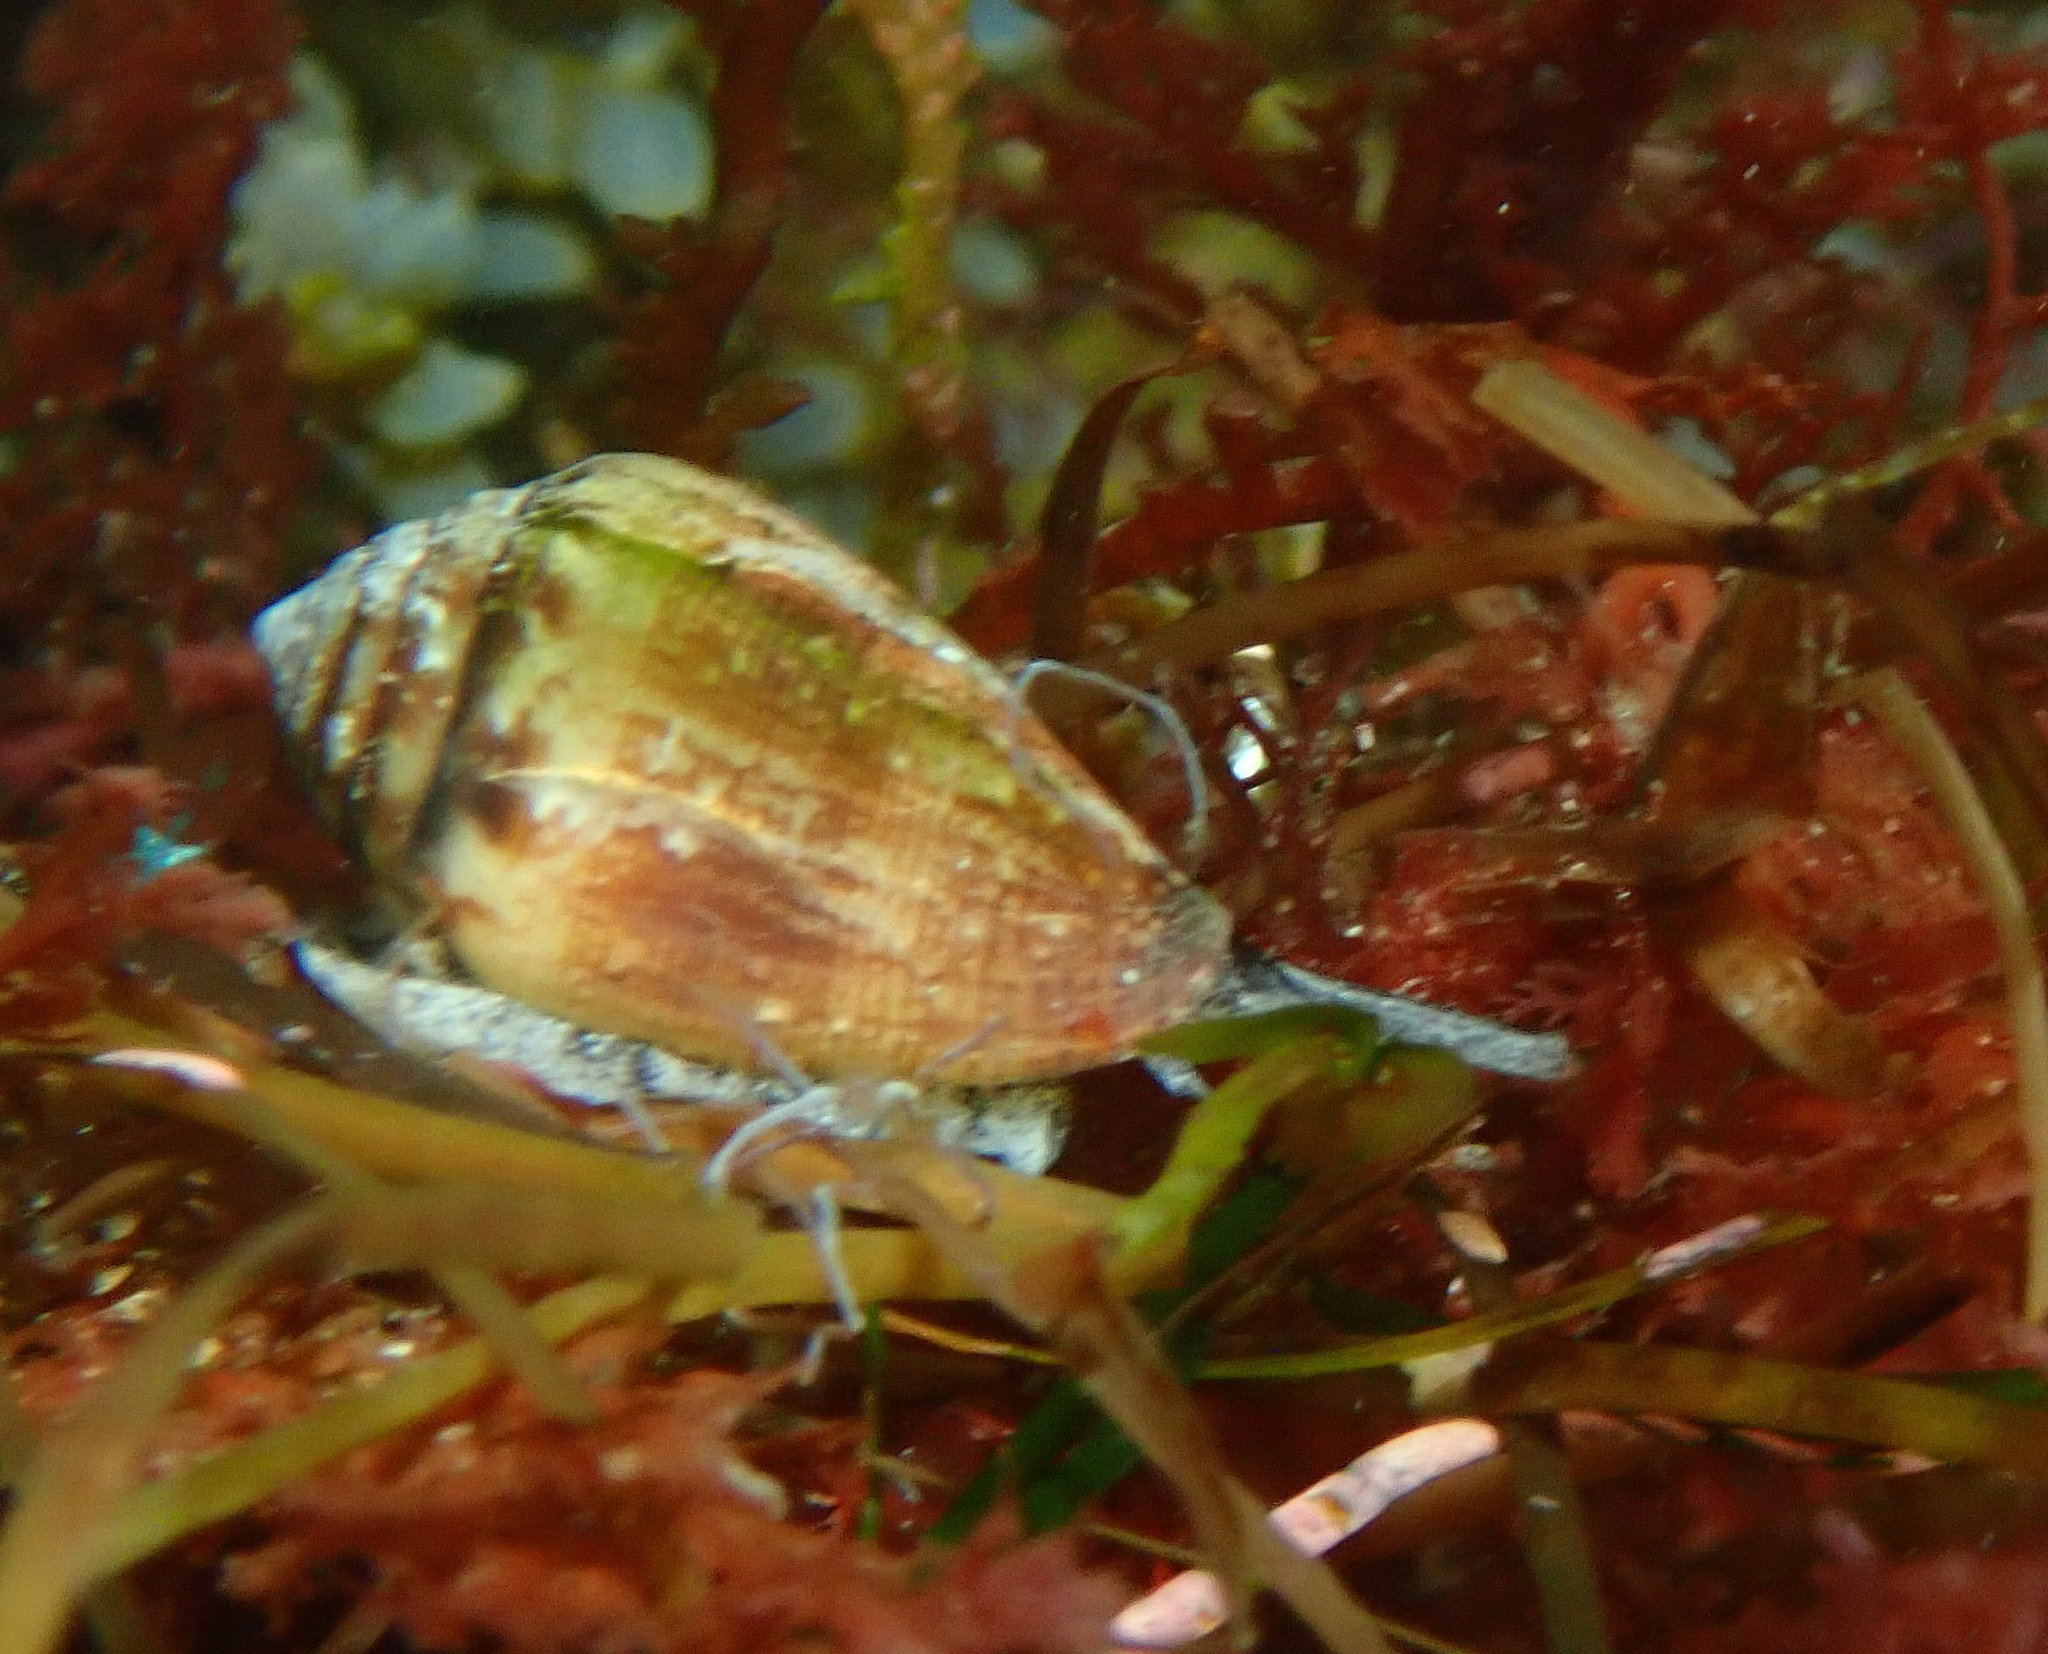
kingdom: Animalia
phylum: Mollusca
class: Gastropoda
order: Neogastropoda
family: Conidae
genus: Californiconus
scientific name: Californiconus californicus
